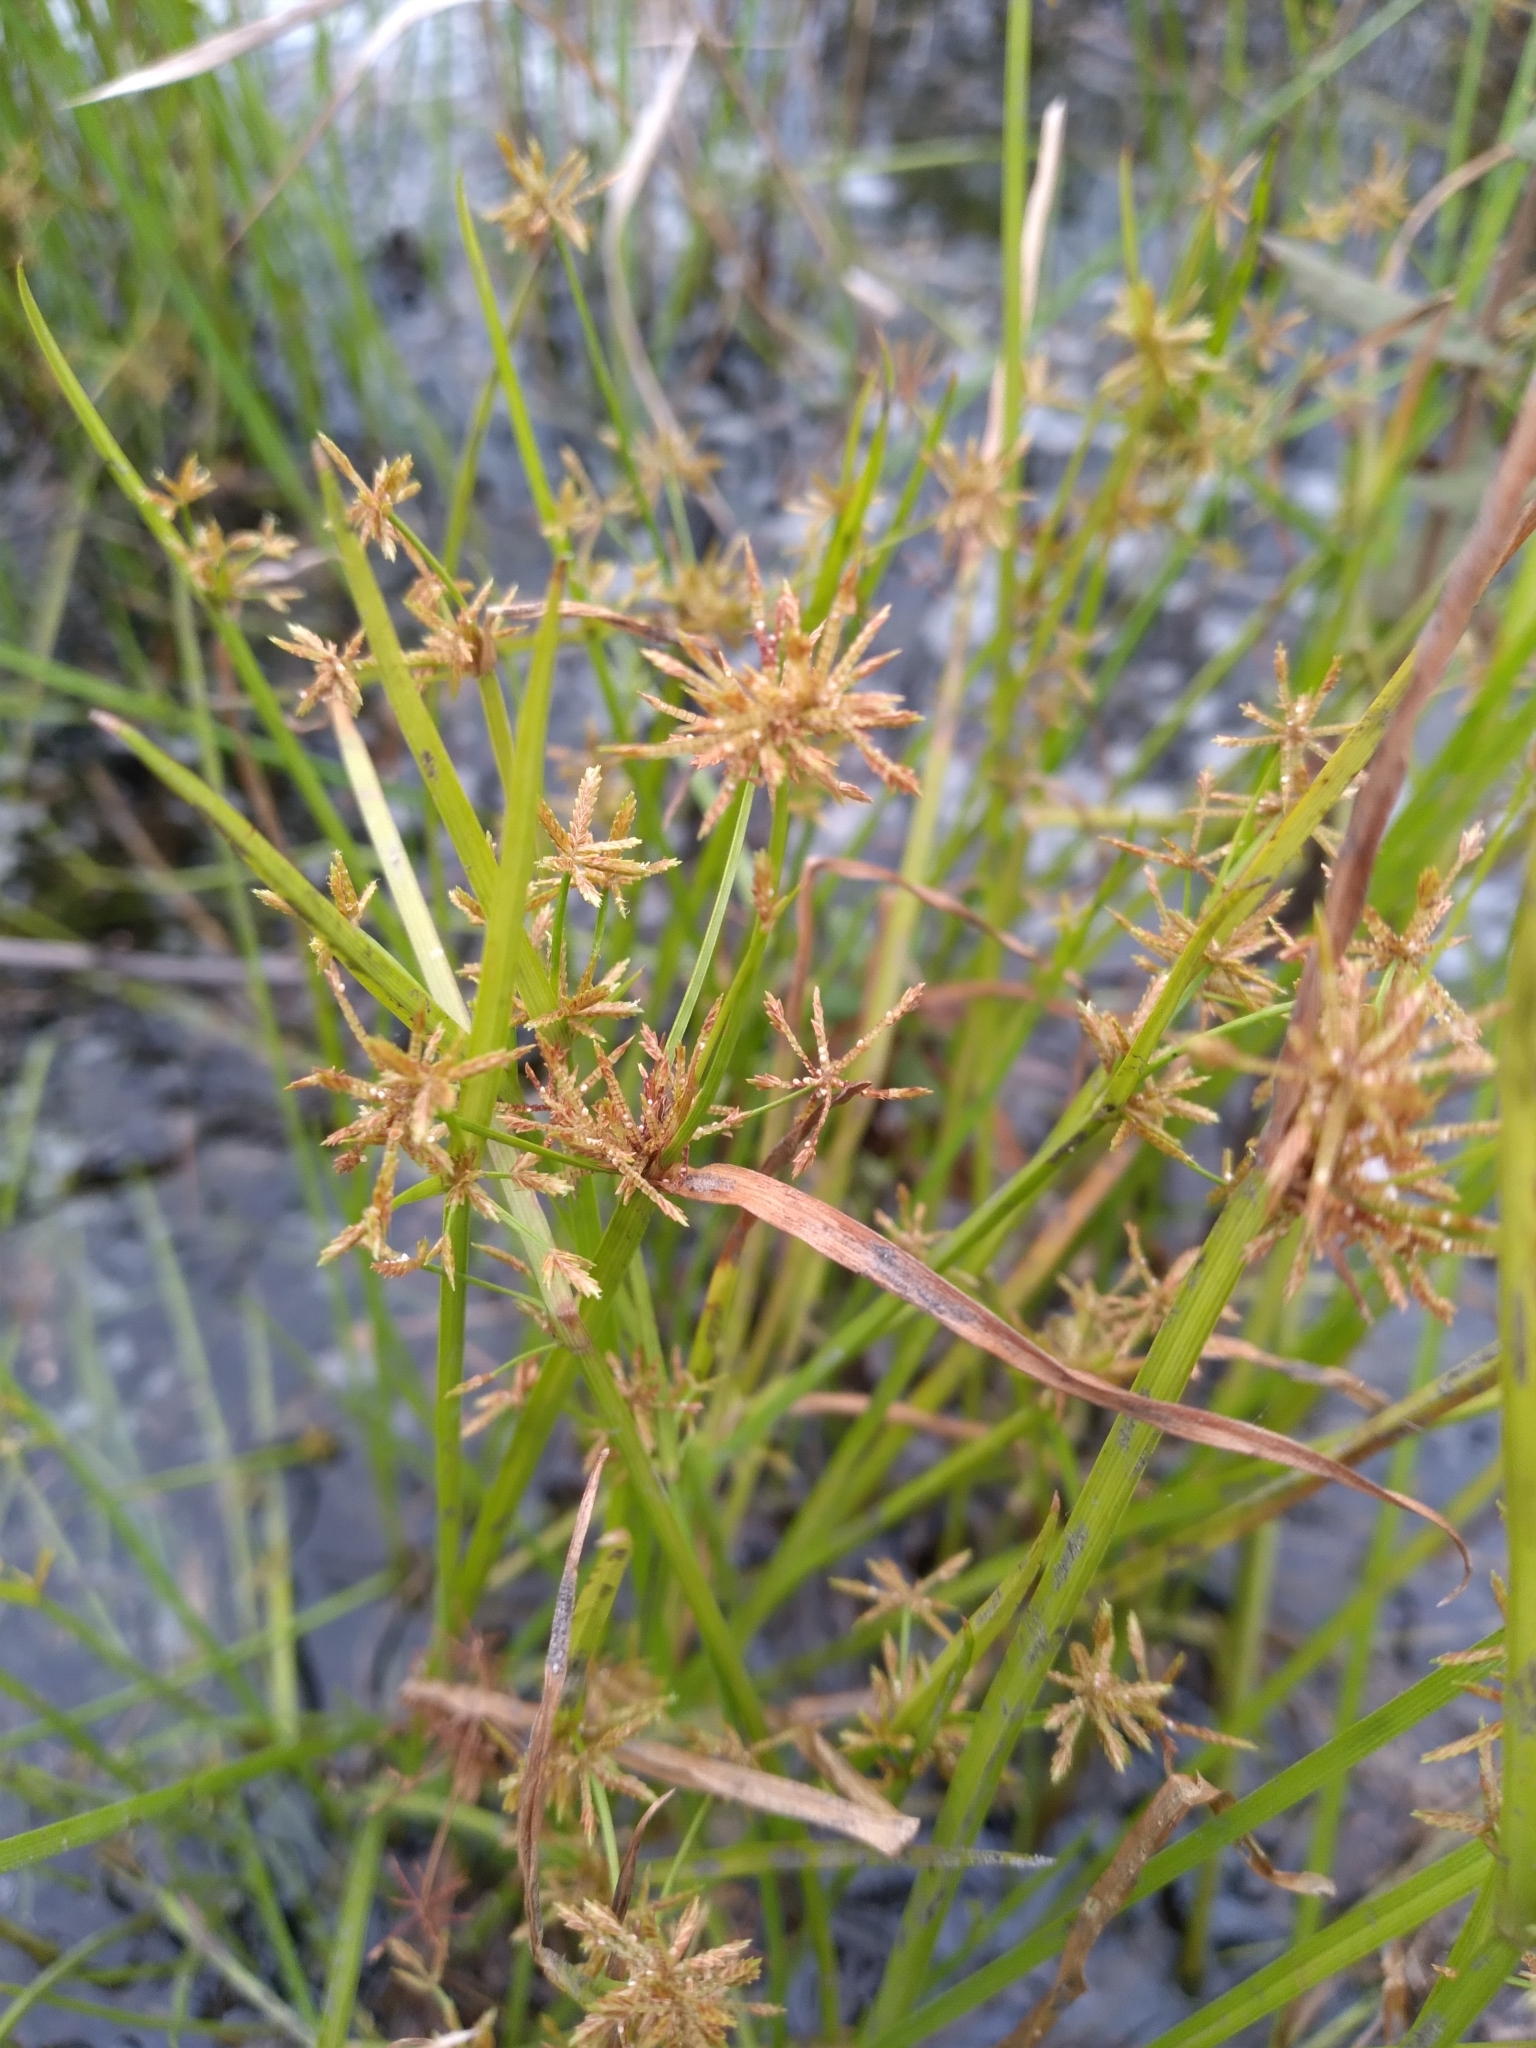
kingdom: Plantae
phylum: Tracheophyta
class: Liliopsida
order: Poales
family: Cyperaceae
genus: Cyperus
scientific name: Cyperus haspan
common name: Haspan flatsedge
